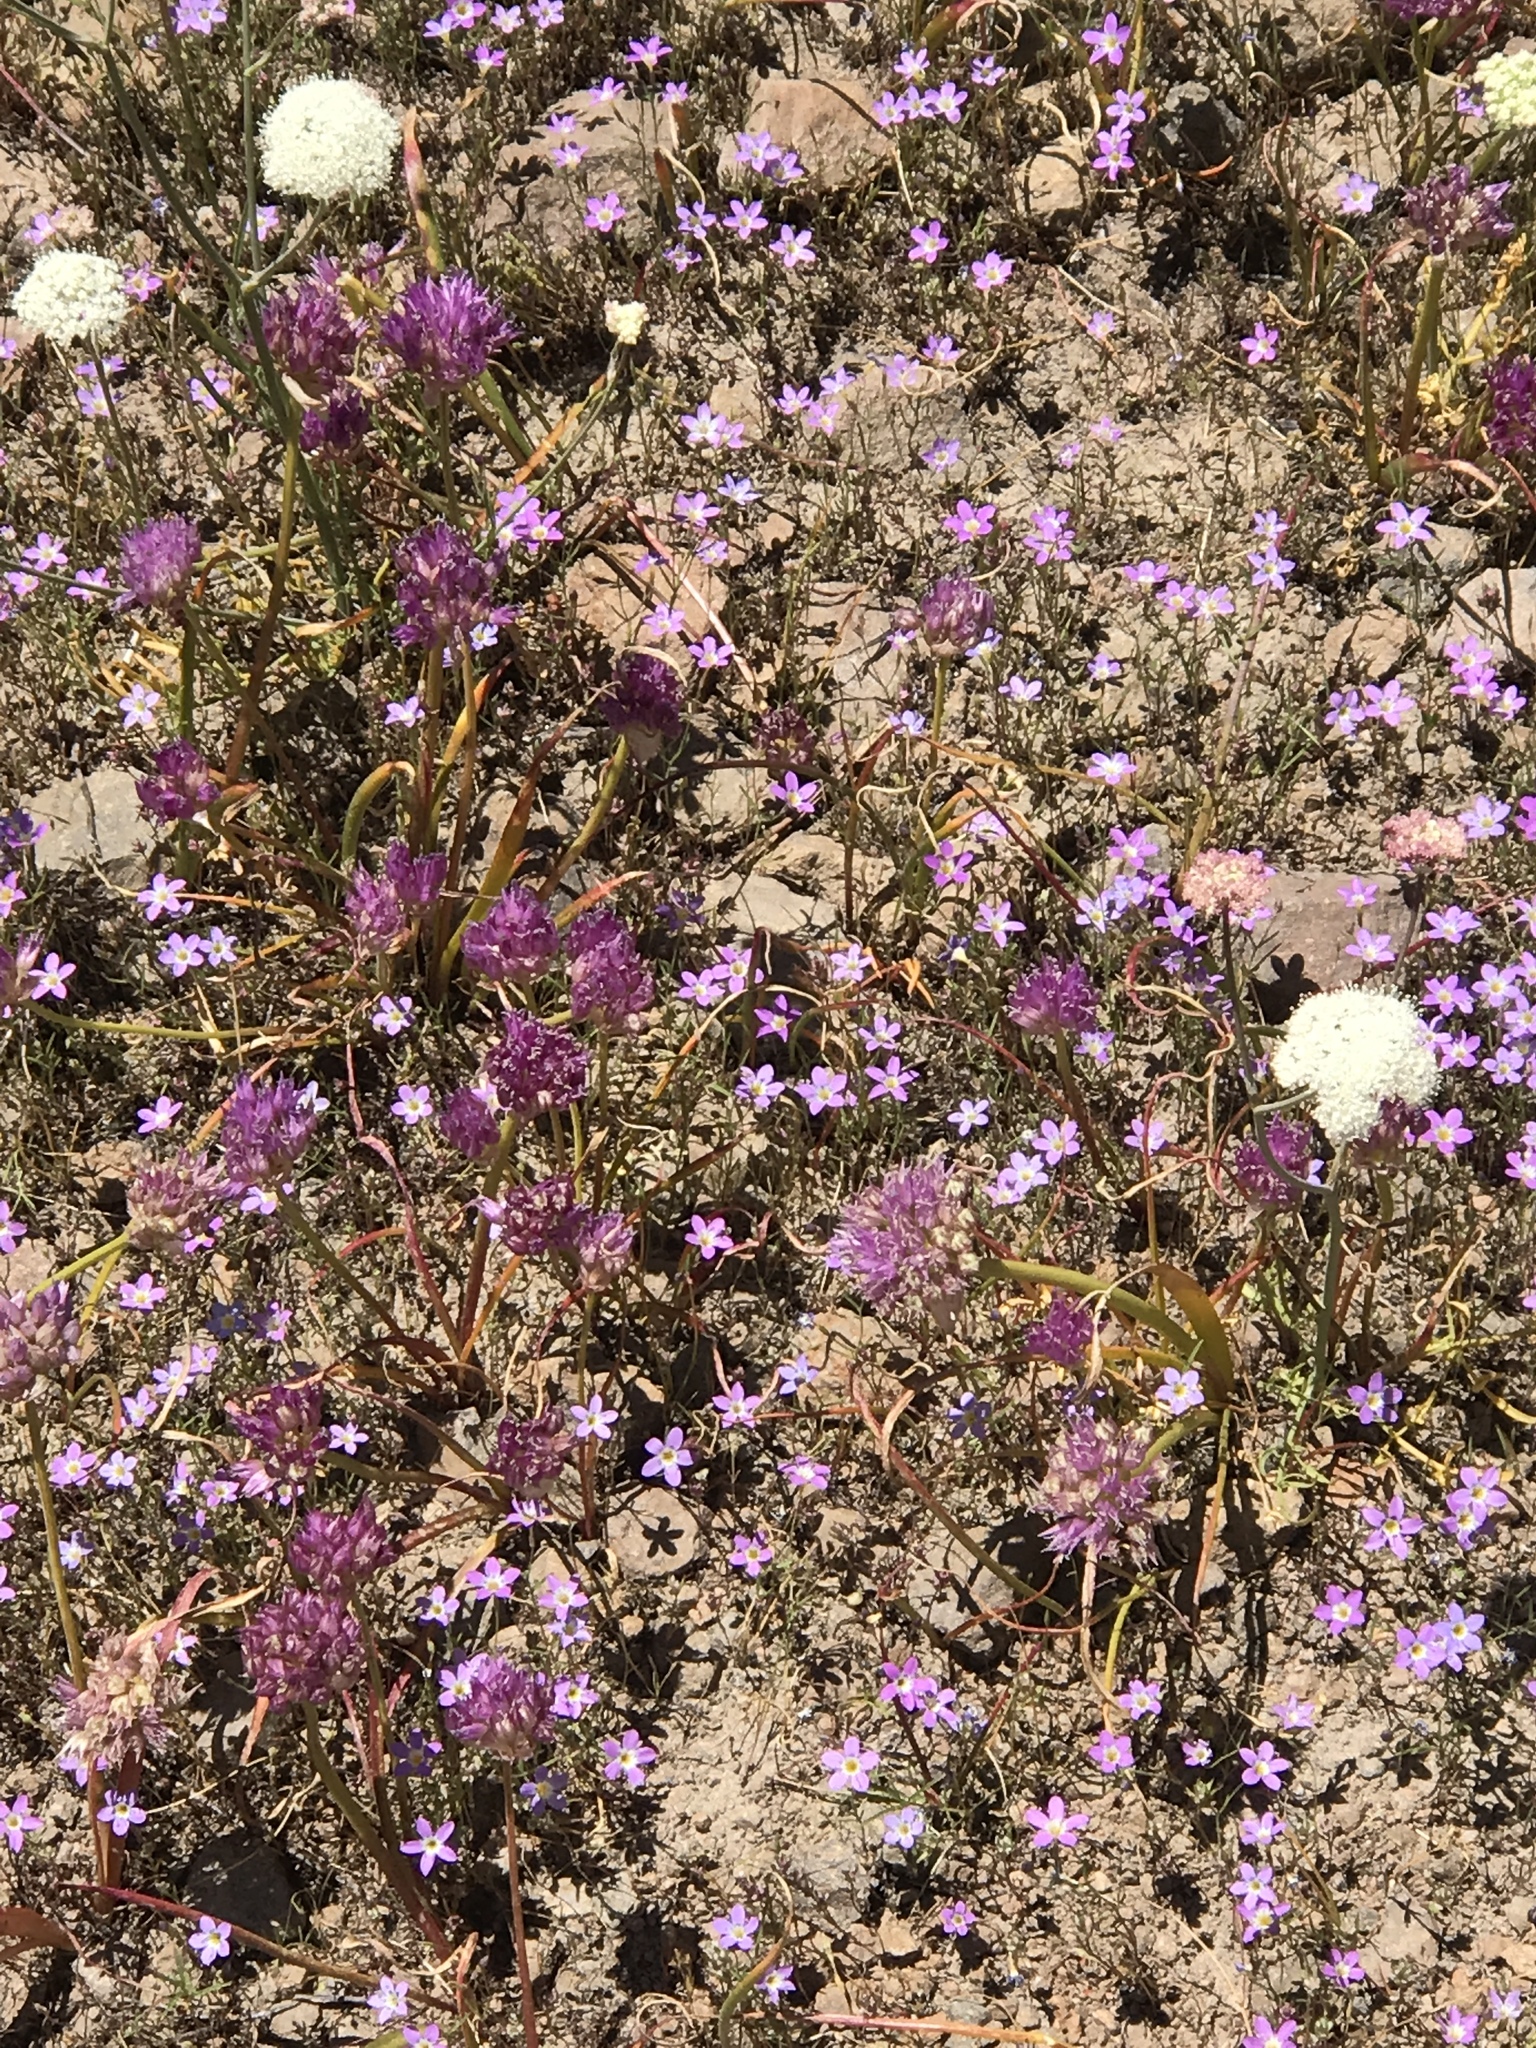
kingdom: Plantae
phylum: Tracheophyta
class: Magnoliopsida
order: Ericales
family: Polemoniaceae
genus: Navarretia
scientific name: Navarretia leptalea
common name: Bridges' pincushionplant
